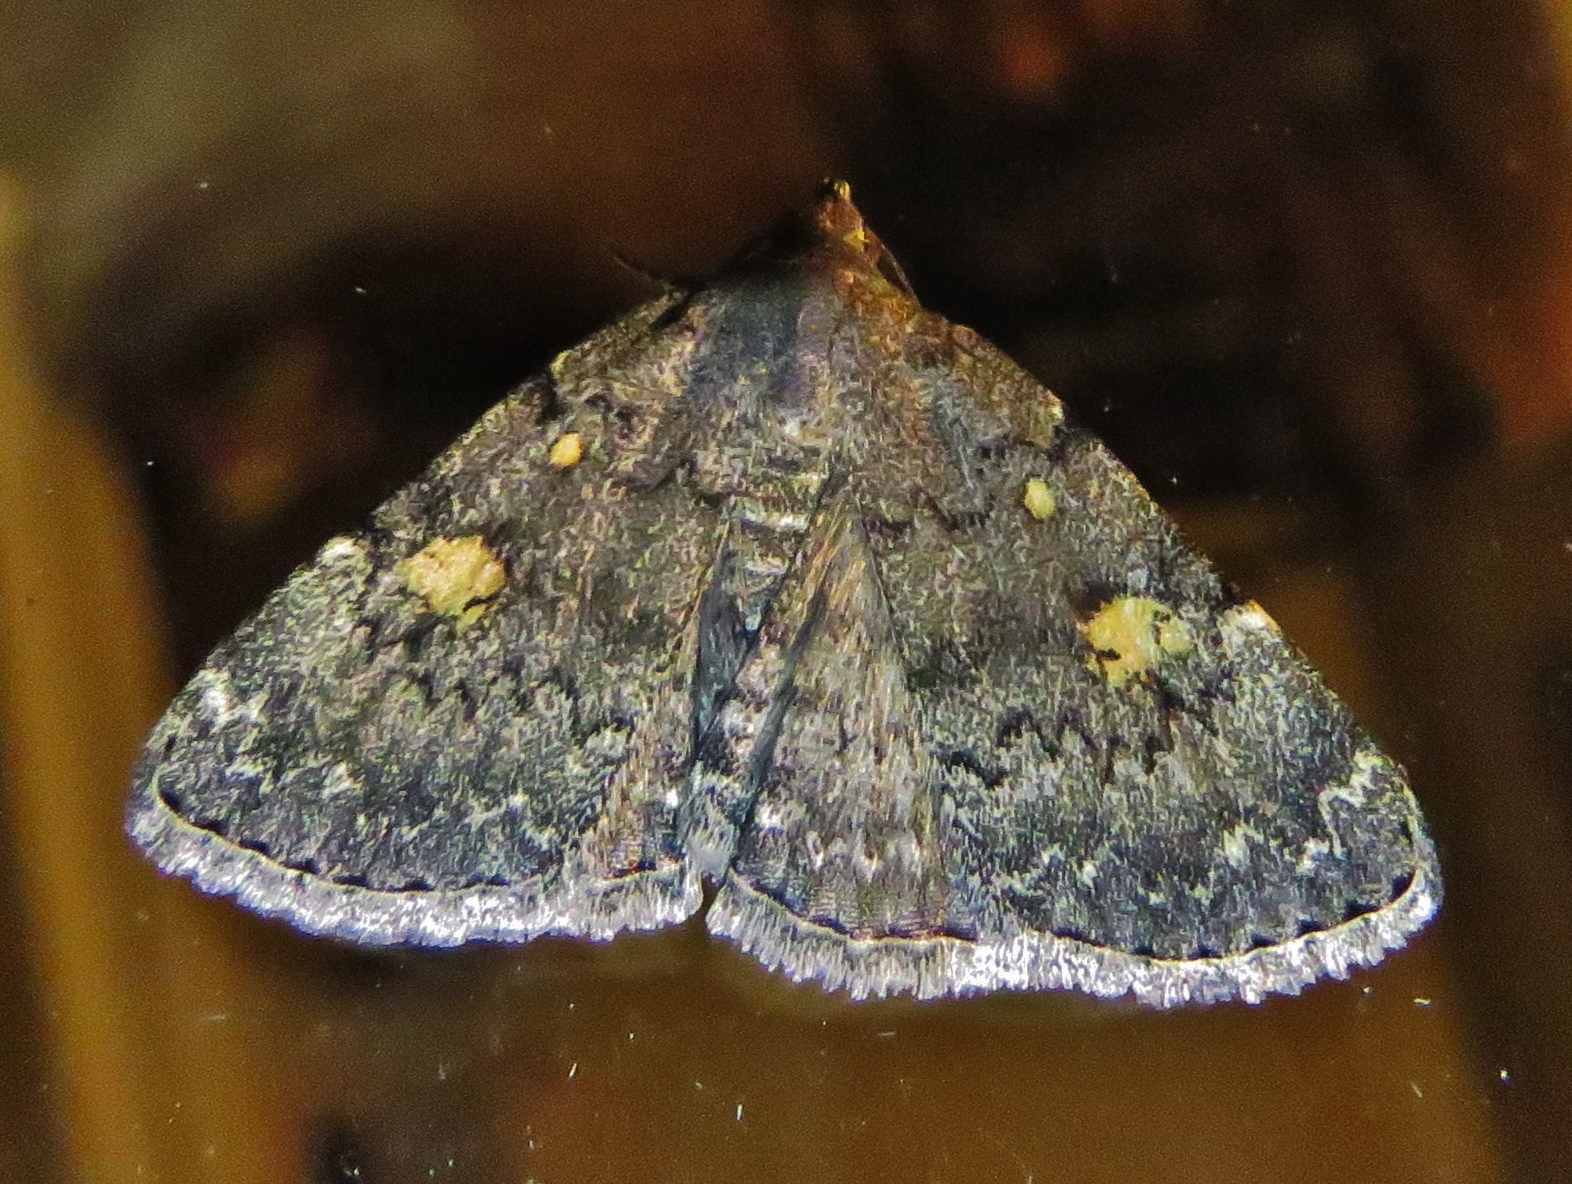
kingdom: Animalia
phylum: Arthropoda
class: Insecta
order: Lepidoptera
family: Erebidae
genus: Idia
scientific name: Idia aemula
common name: Common idia moth
